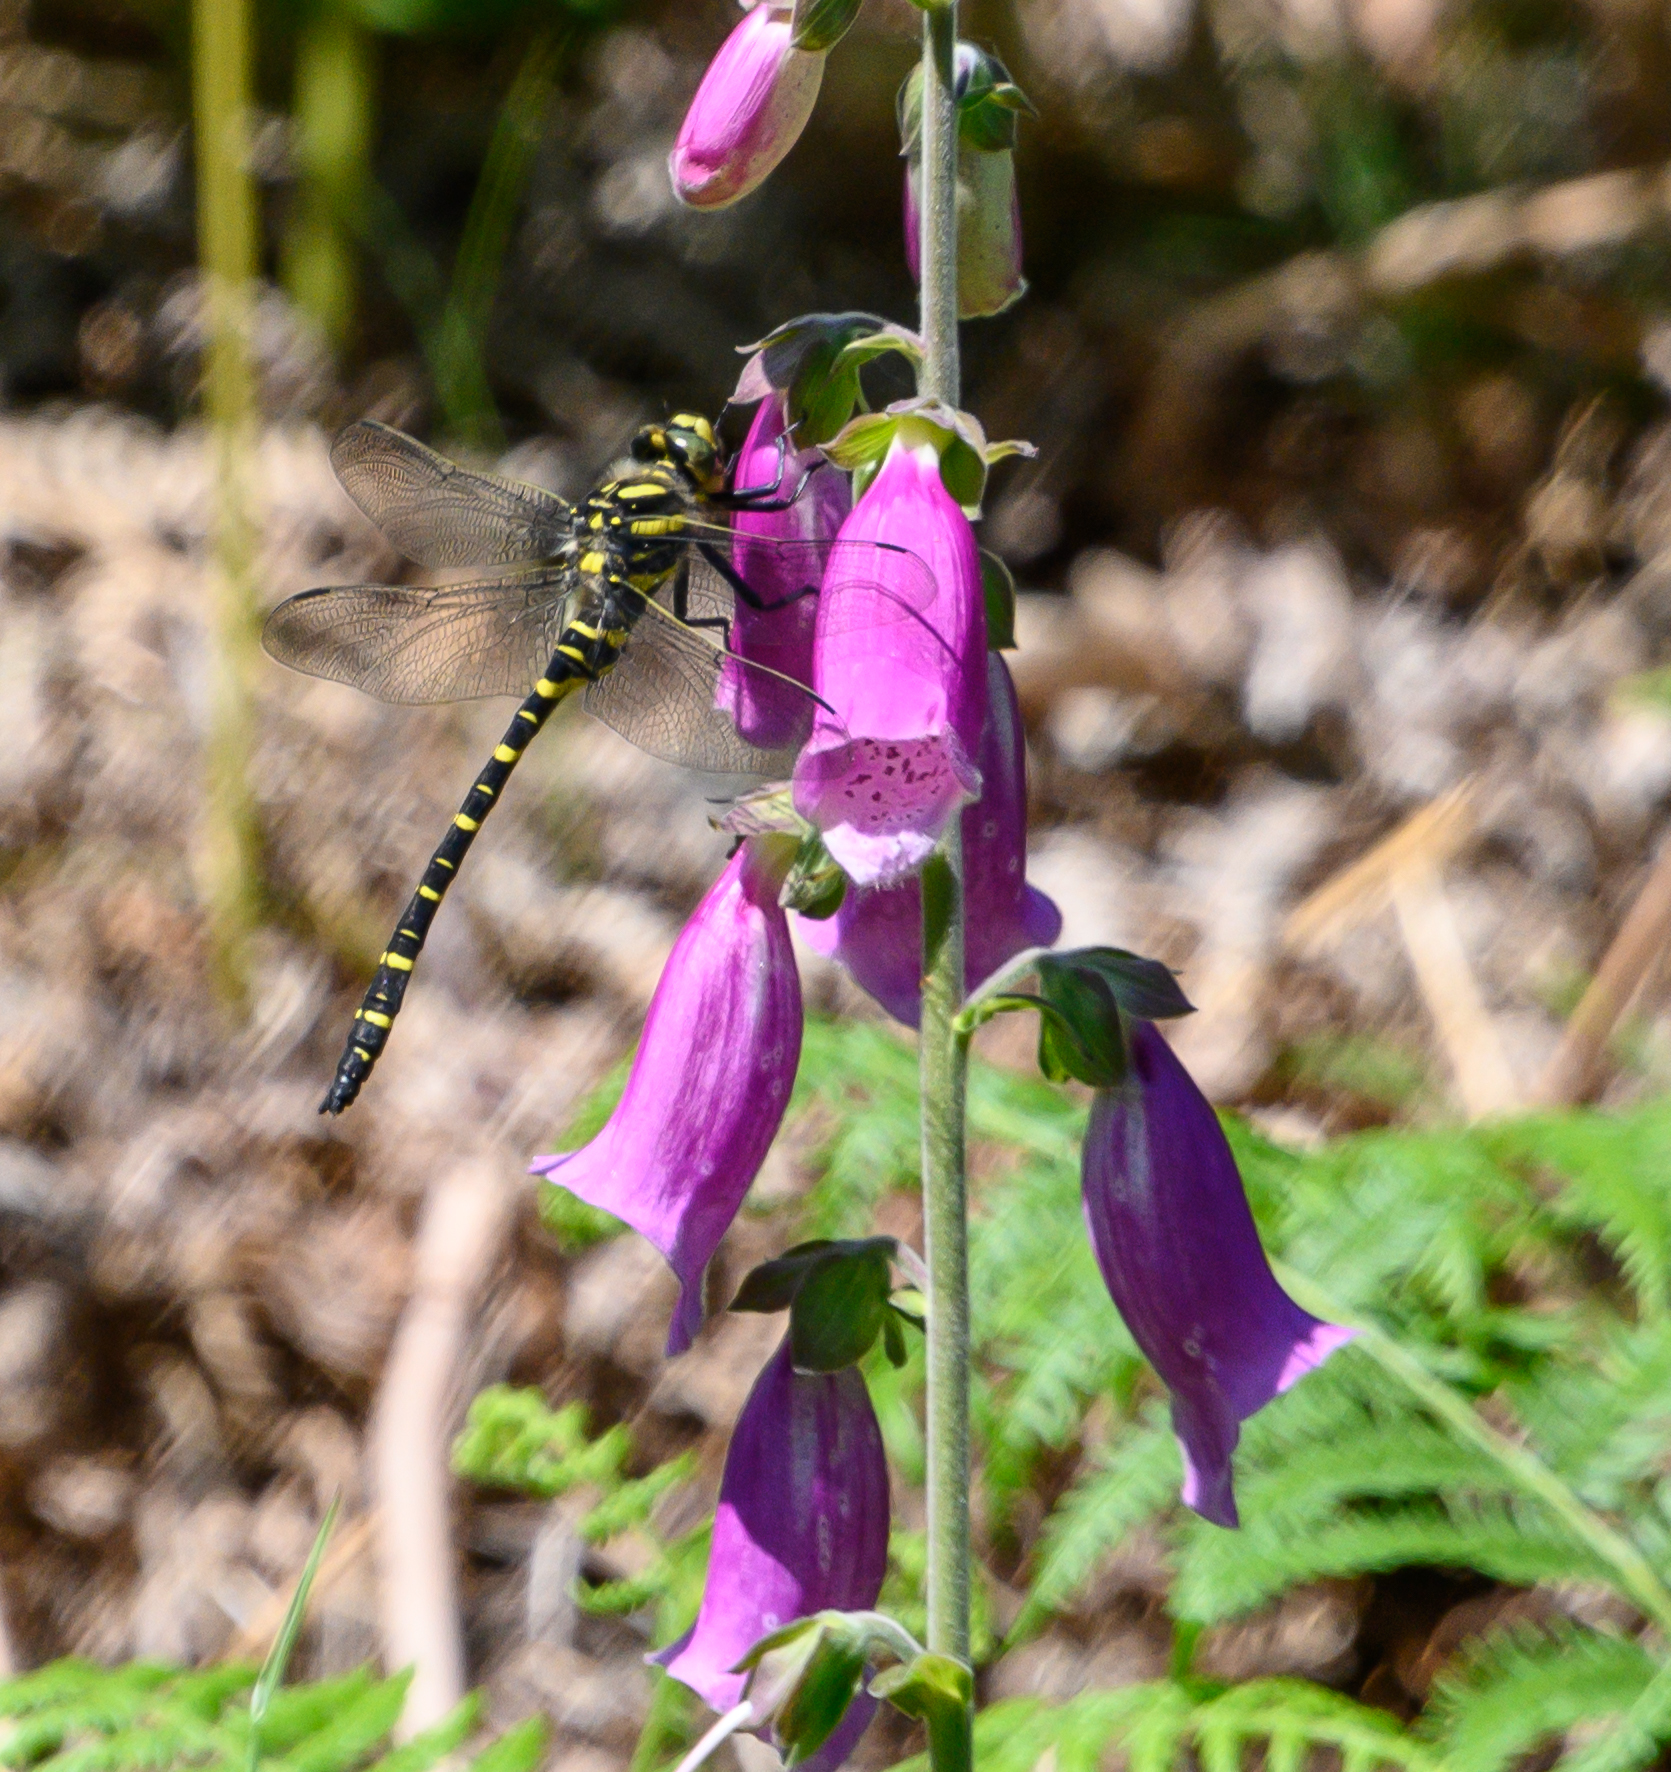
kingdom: Animalia
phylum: Arthropoda
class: Insecta
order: Odonata
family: Cordulegastridae
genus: Cordulegaster
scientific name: Cordulegaster boltonii
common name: Golden-ringed dragonfly
